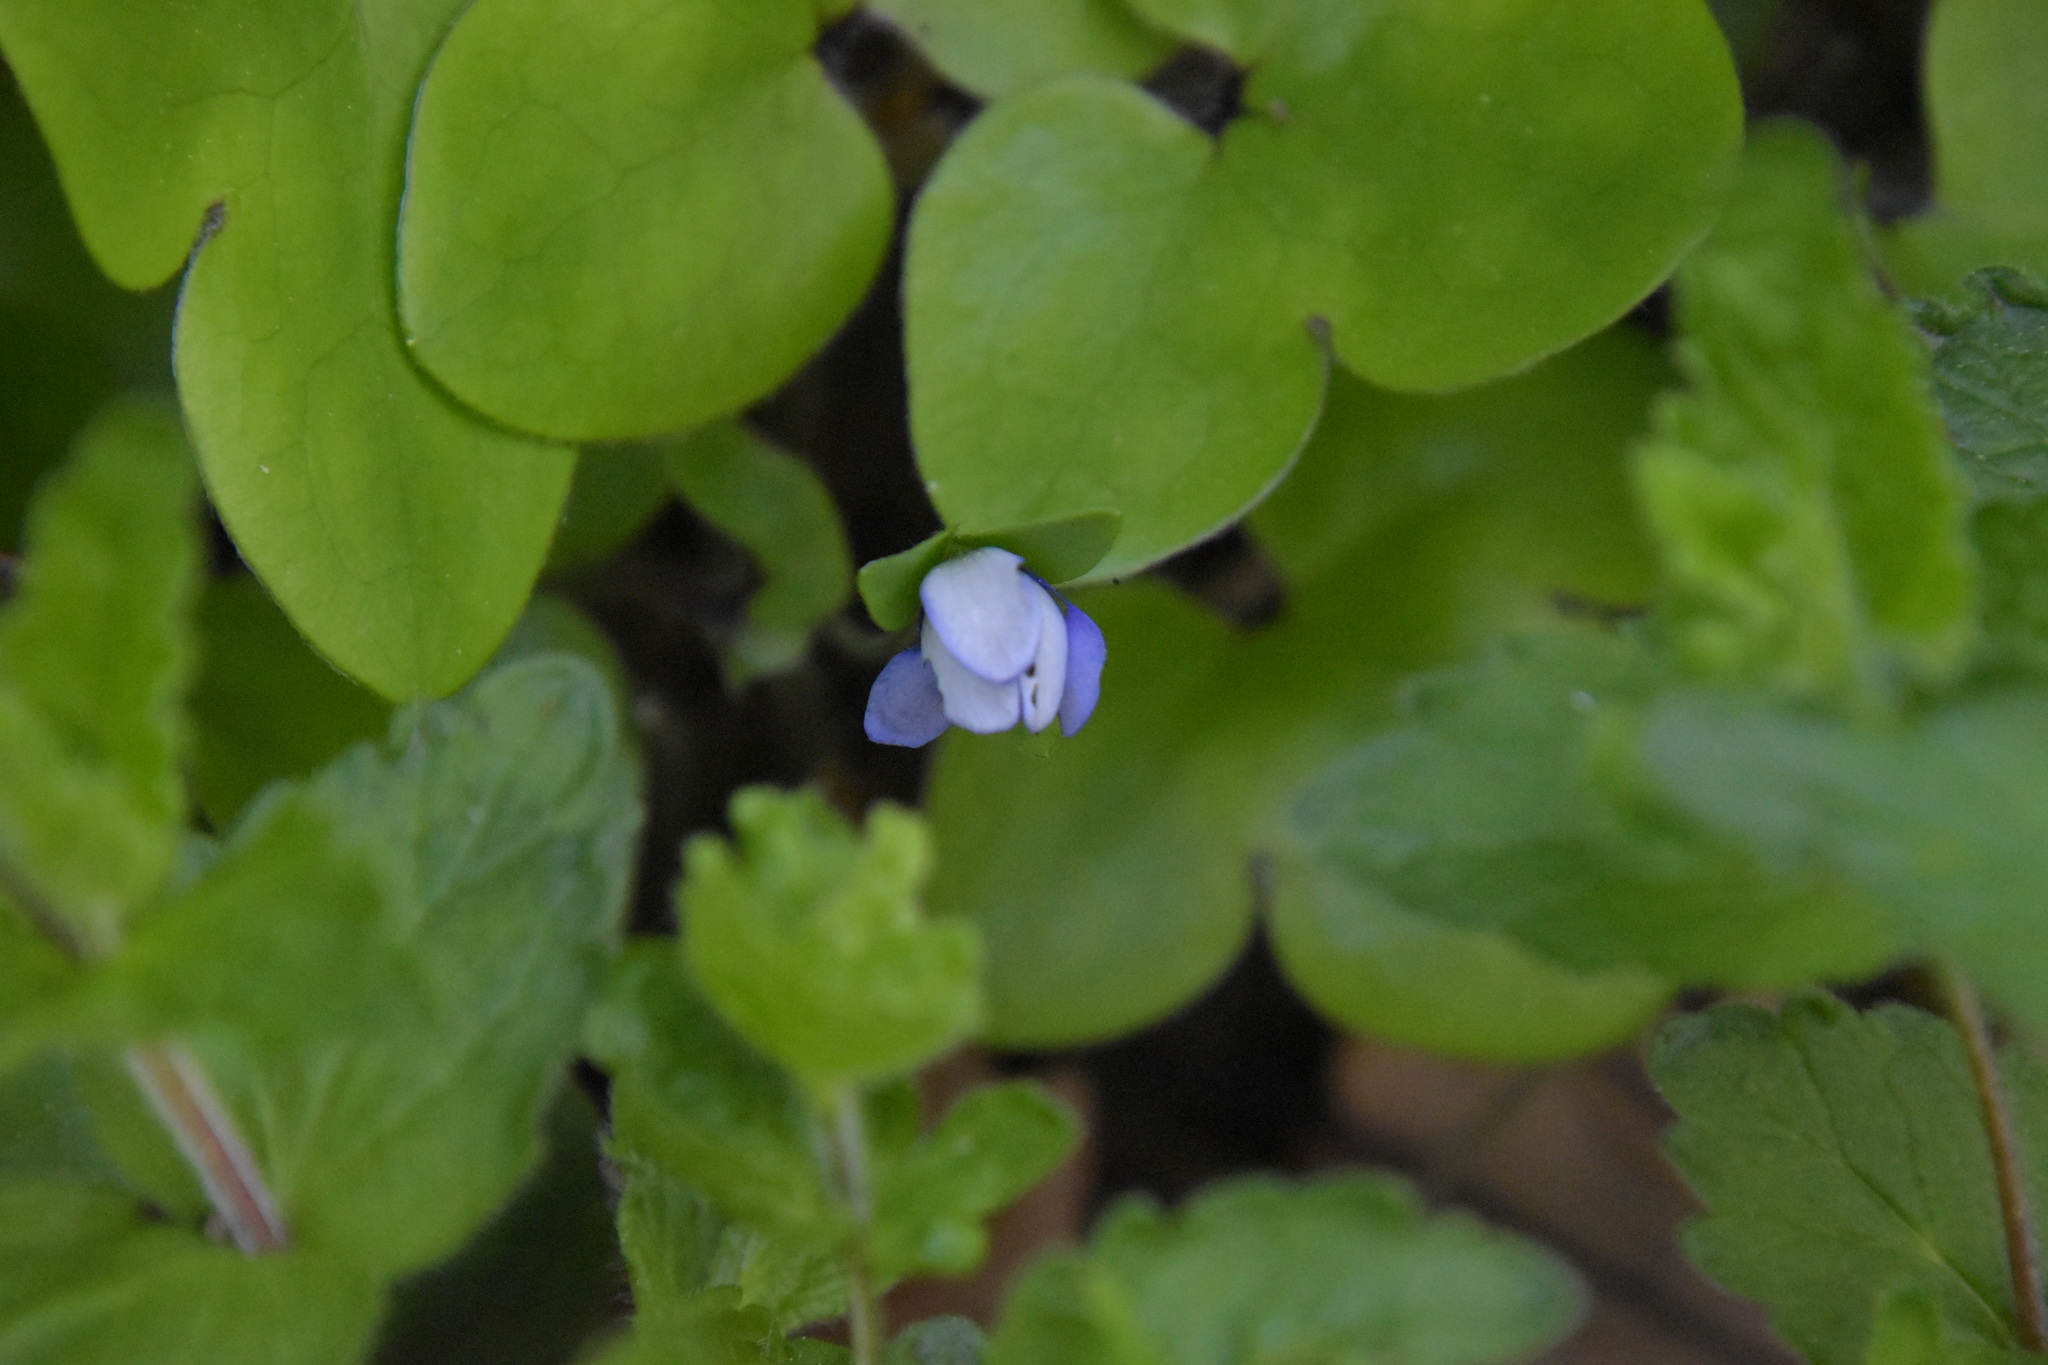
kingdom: Plantae
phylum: Tracheophyta
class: Magnoliopsida
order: Ranunculales
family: Ranunculaceae
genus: Hepatica
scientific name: Hepatica nobilis
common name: Liverleaf
